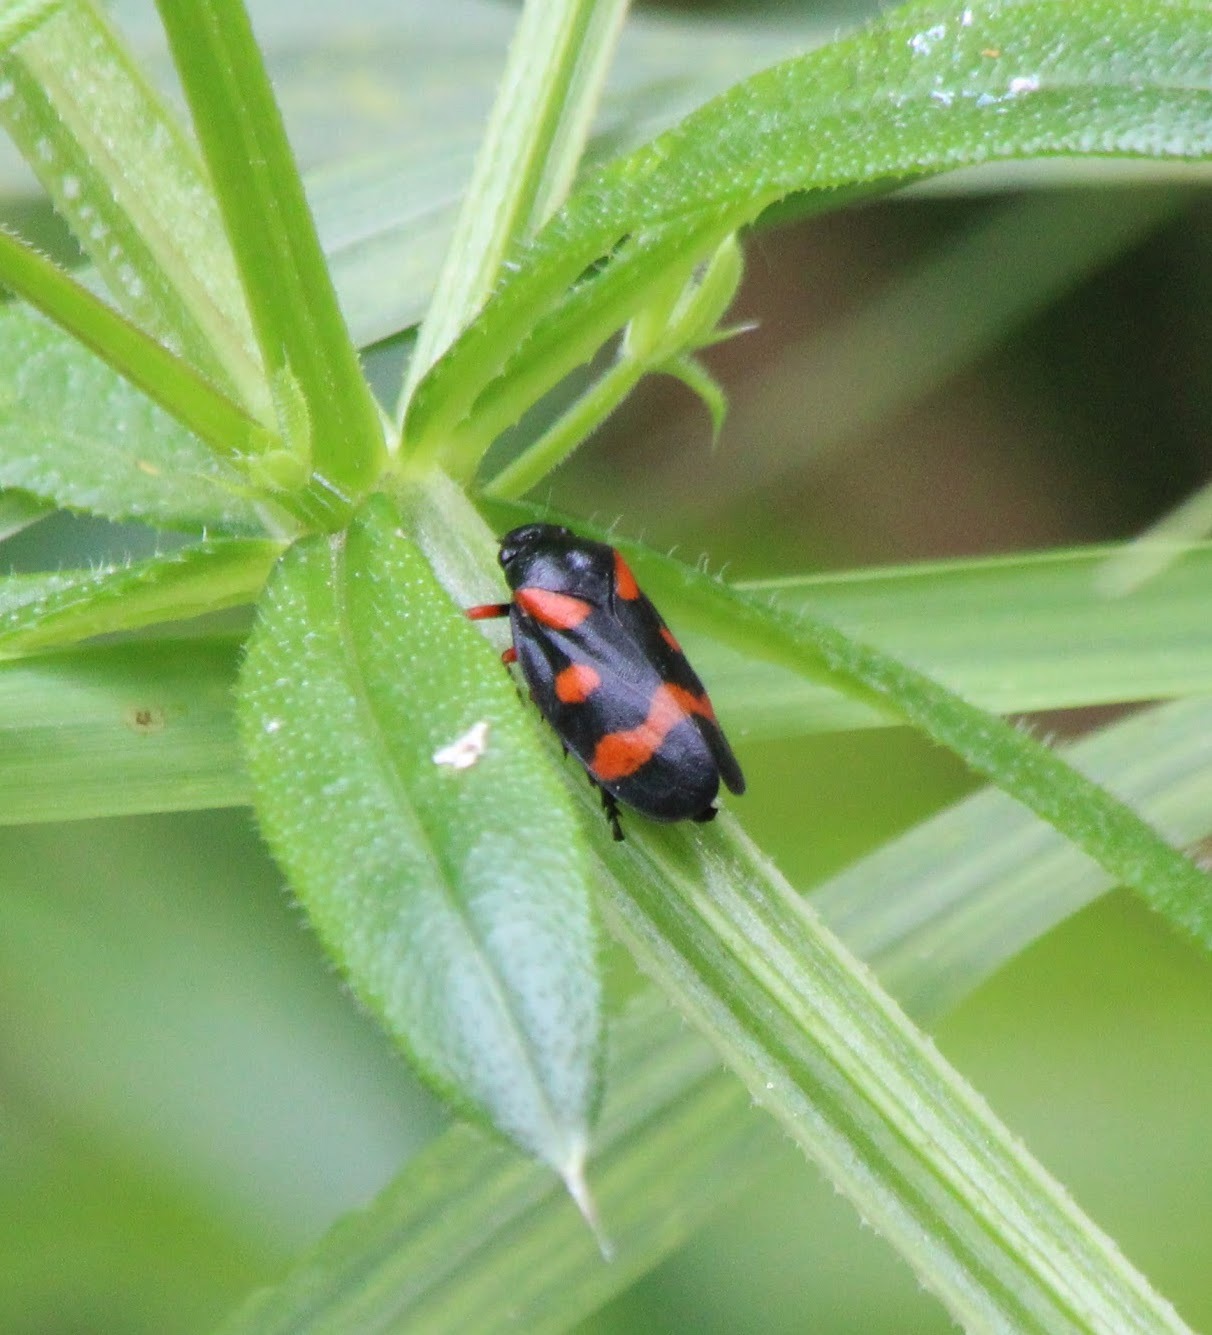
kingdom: Animalia
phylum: Arthropoda
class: Insecta
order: Hemiptera
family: Cercopidae
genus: Cercopis
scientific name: Cercopis intermedia
